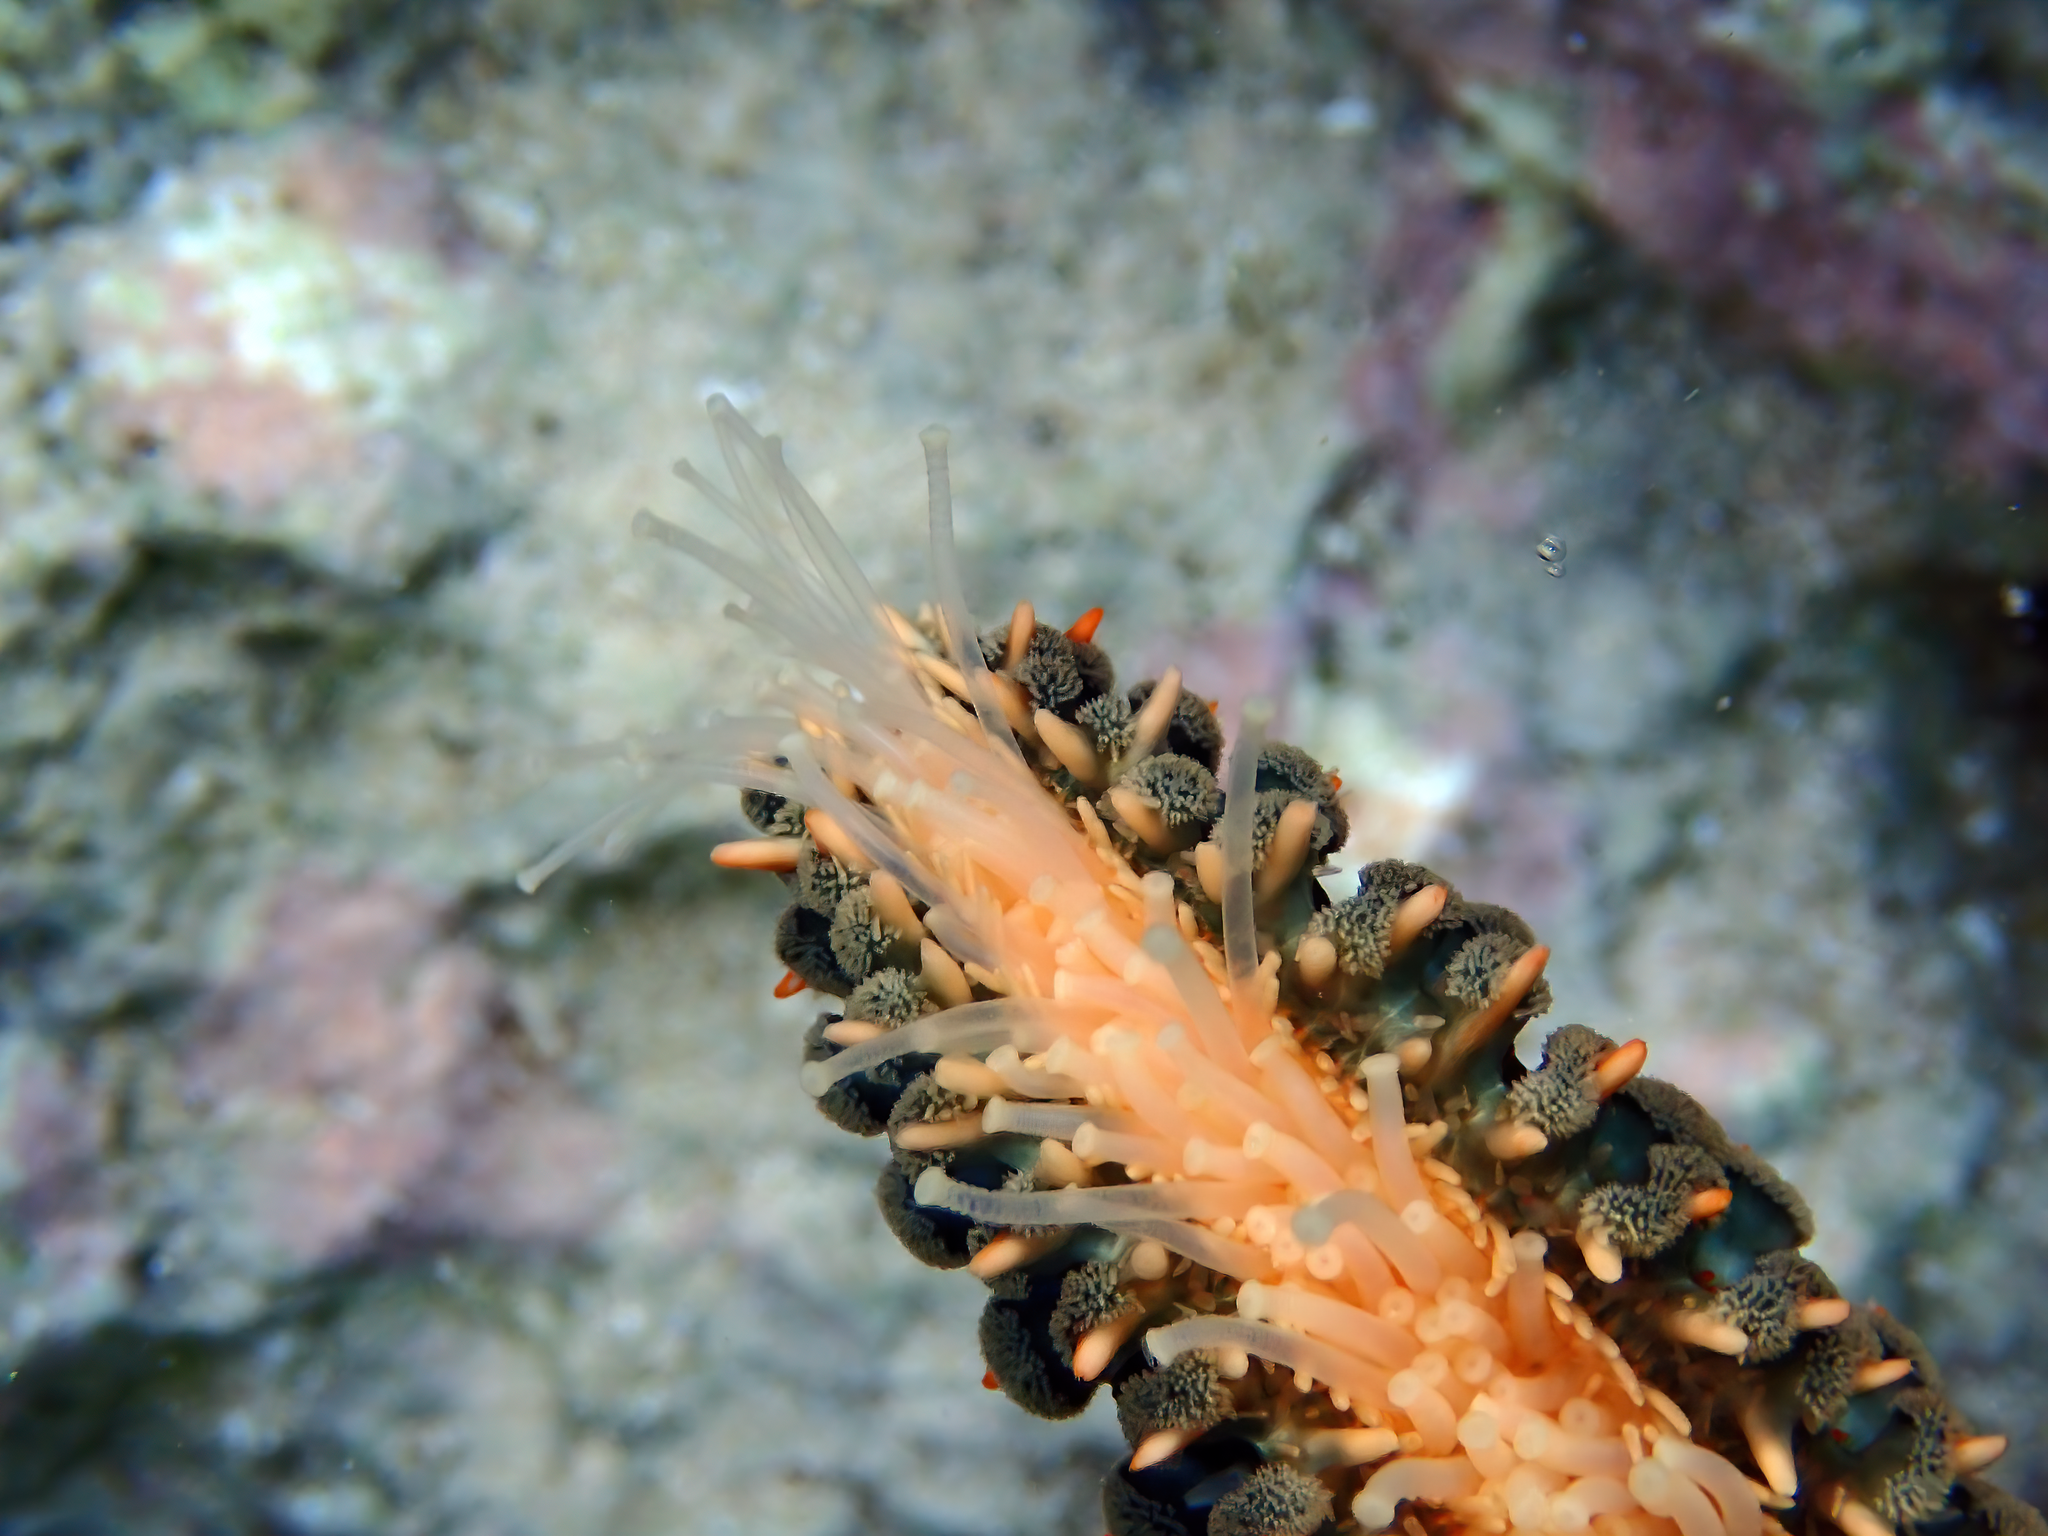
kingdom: Animalia
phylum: Echinodermata
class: Asteroidea
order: Forcipulatida
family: Asteriidae
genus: Marthasterias
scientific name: Marthasterias glacialis
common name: Spiny starfish
